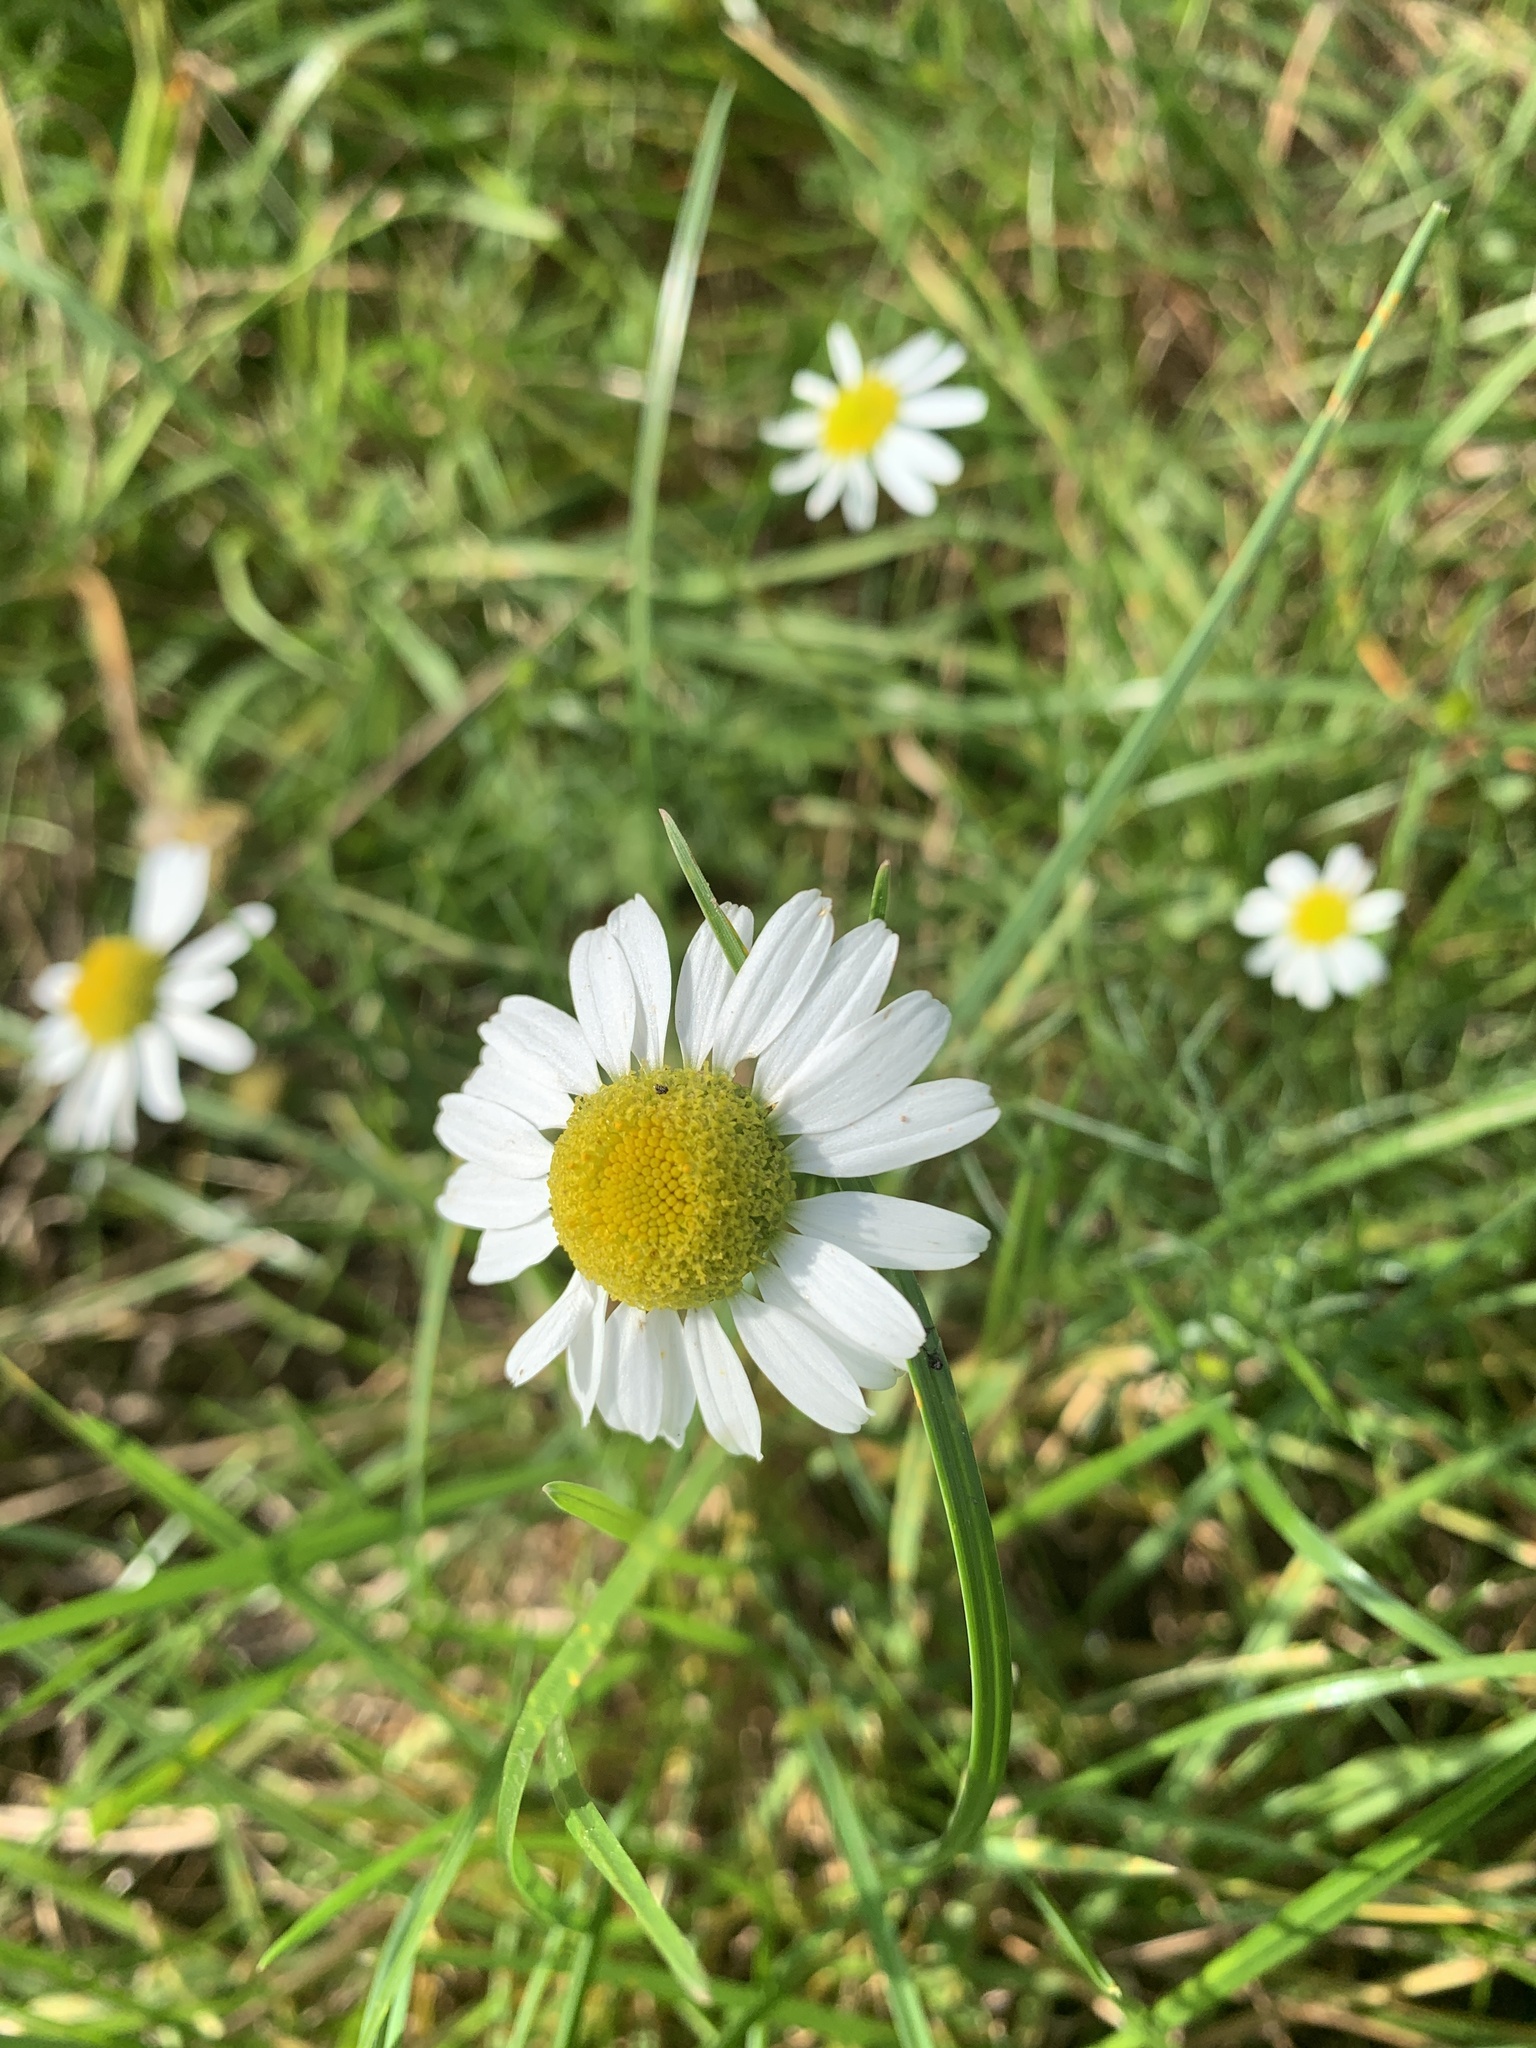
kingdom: Plantae
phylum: Tracheophyta
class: Magnoliopsida
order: Asterales
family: Asteraceae
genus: Leucanthemum
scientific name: Leucanthemum vulgare
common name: Oxeye daisy
